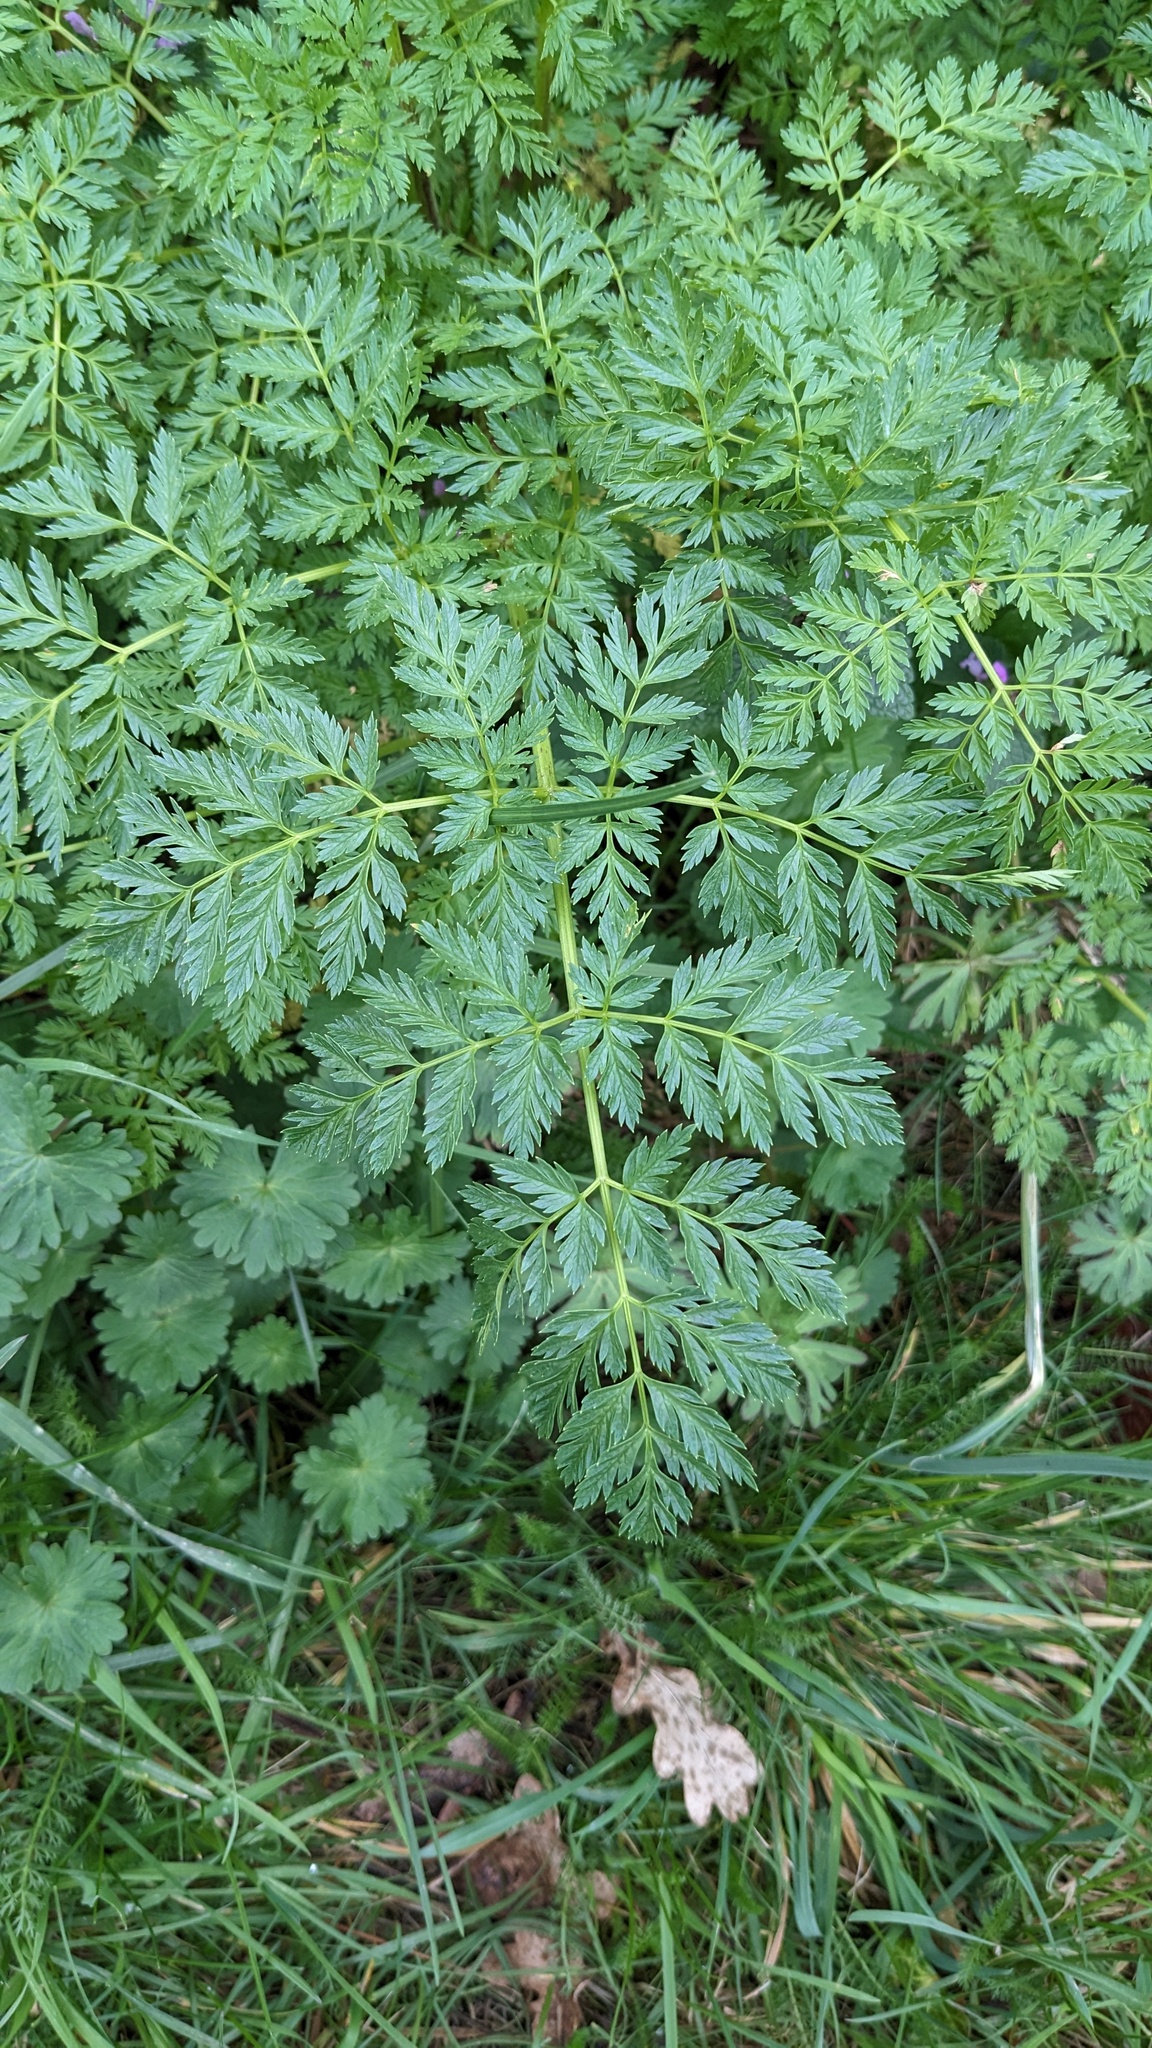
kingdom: Plantae
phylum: Tracheophyta
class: Magnoliopsida
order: Apiales
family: Apiaceae
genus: Conium
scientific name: Conium maculatum
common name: Hemlock
